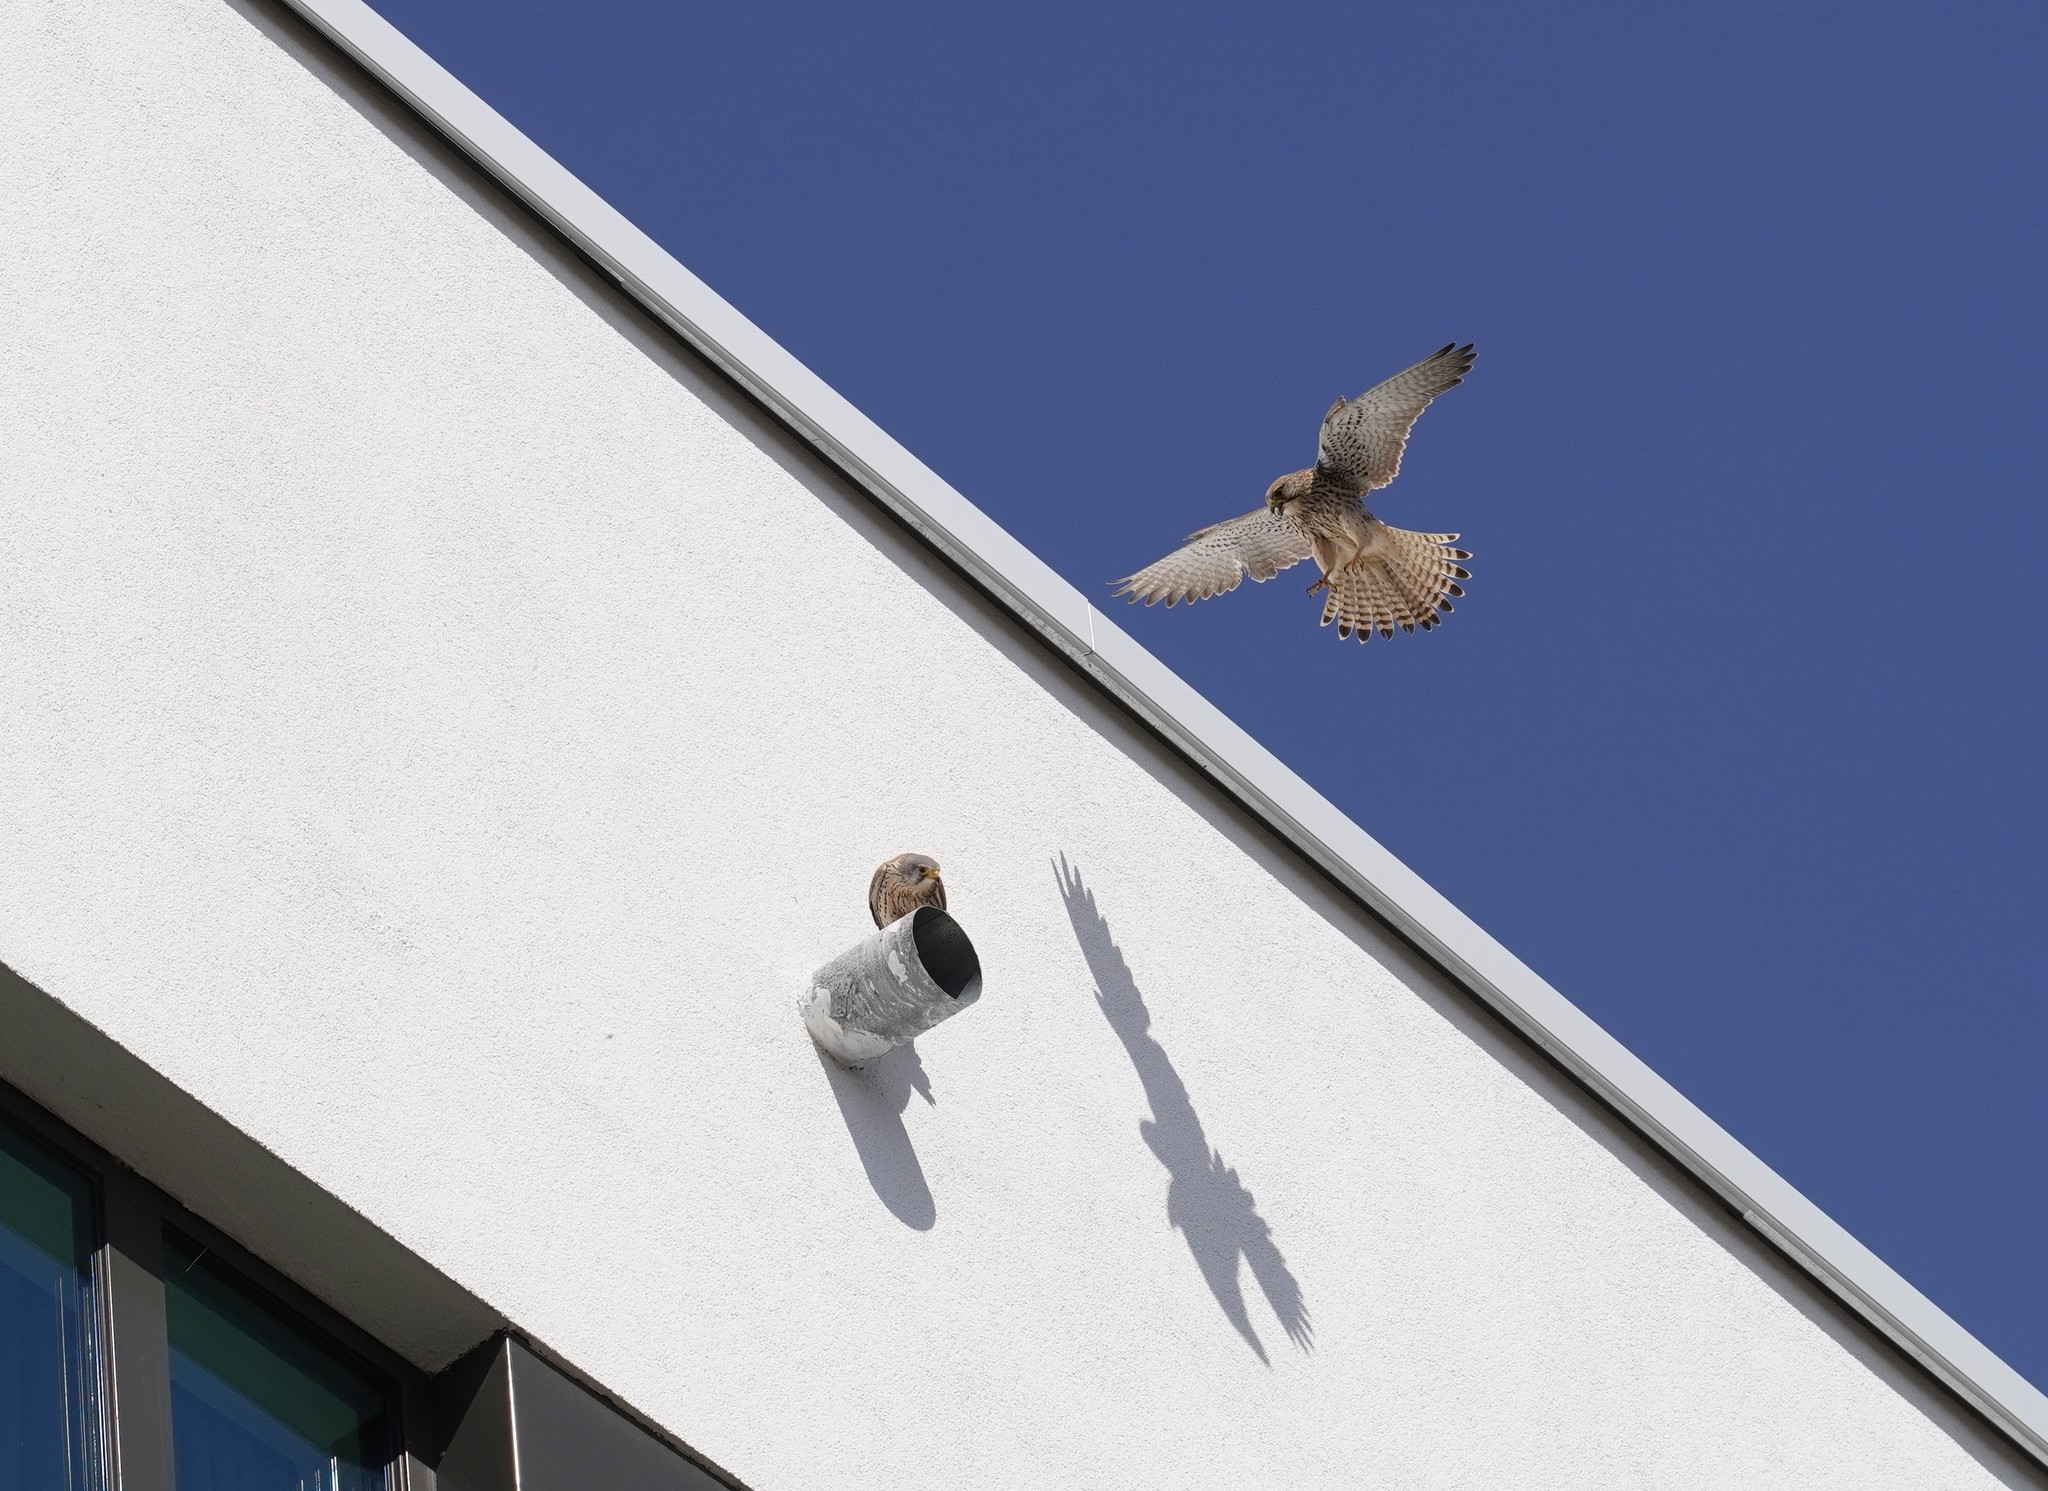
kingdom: Animalia
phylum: Chordata
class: Aves
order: Falconiformes
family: Falconidae
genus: Falco
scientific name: Falco tinnunculus
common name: Common kestrel
